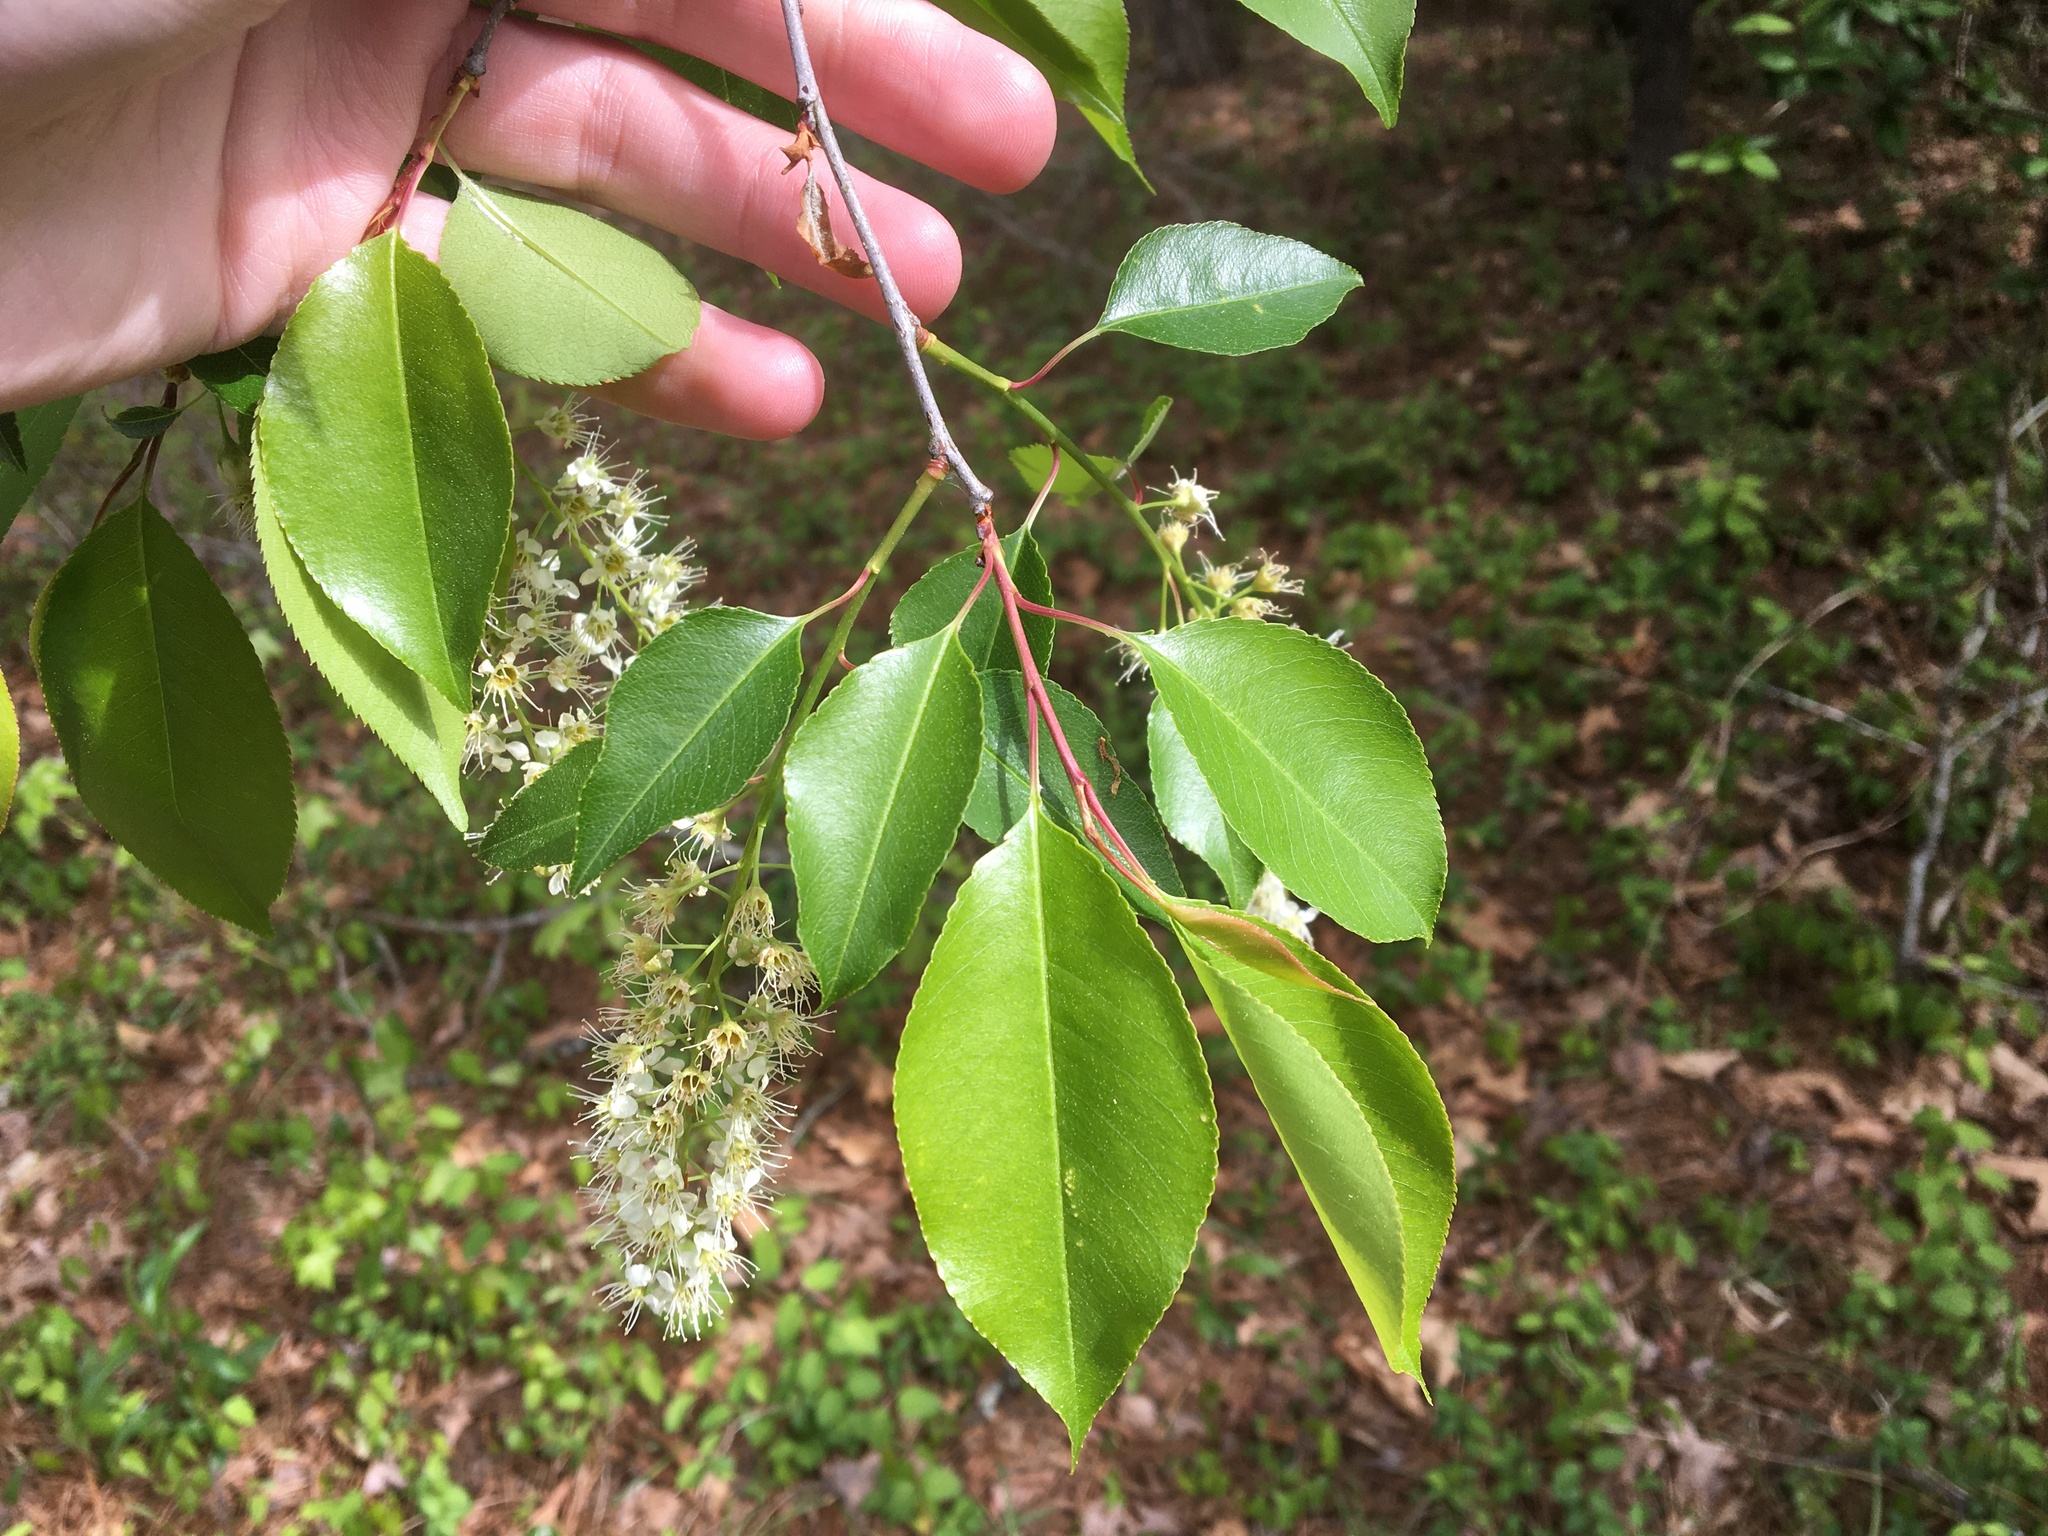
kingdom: Plantae
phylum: Tracheophyta
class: Magnoliopsida
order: Rosales
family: Rosaceae
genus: Prunus
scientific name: Prunus serotina
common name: Black cherry
